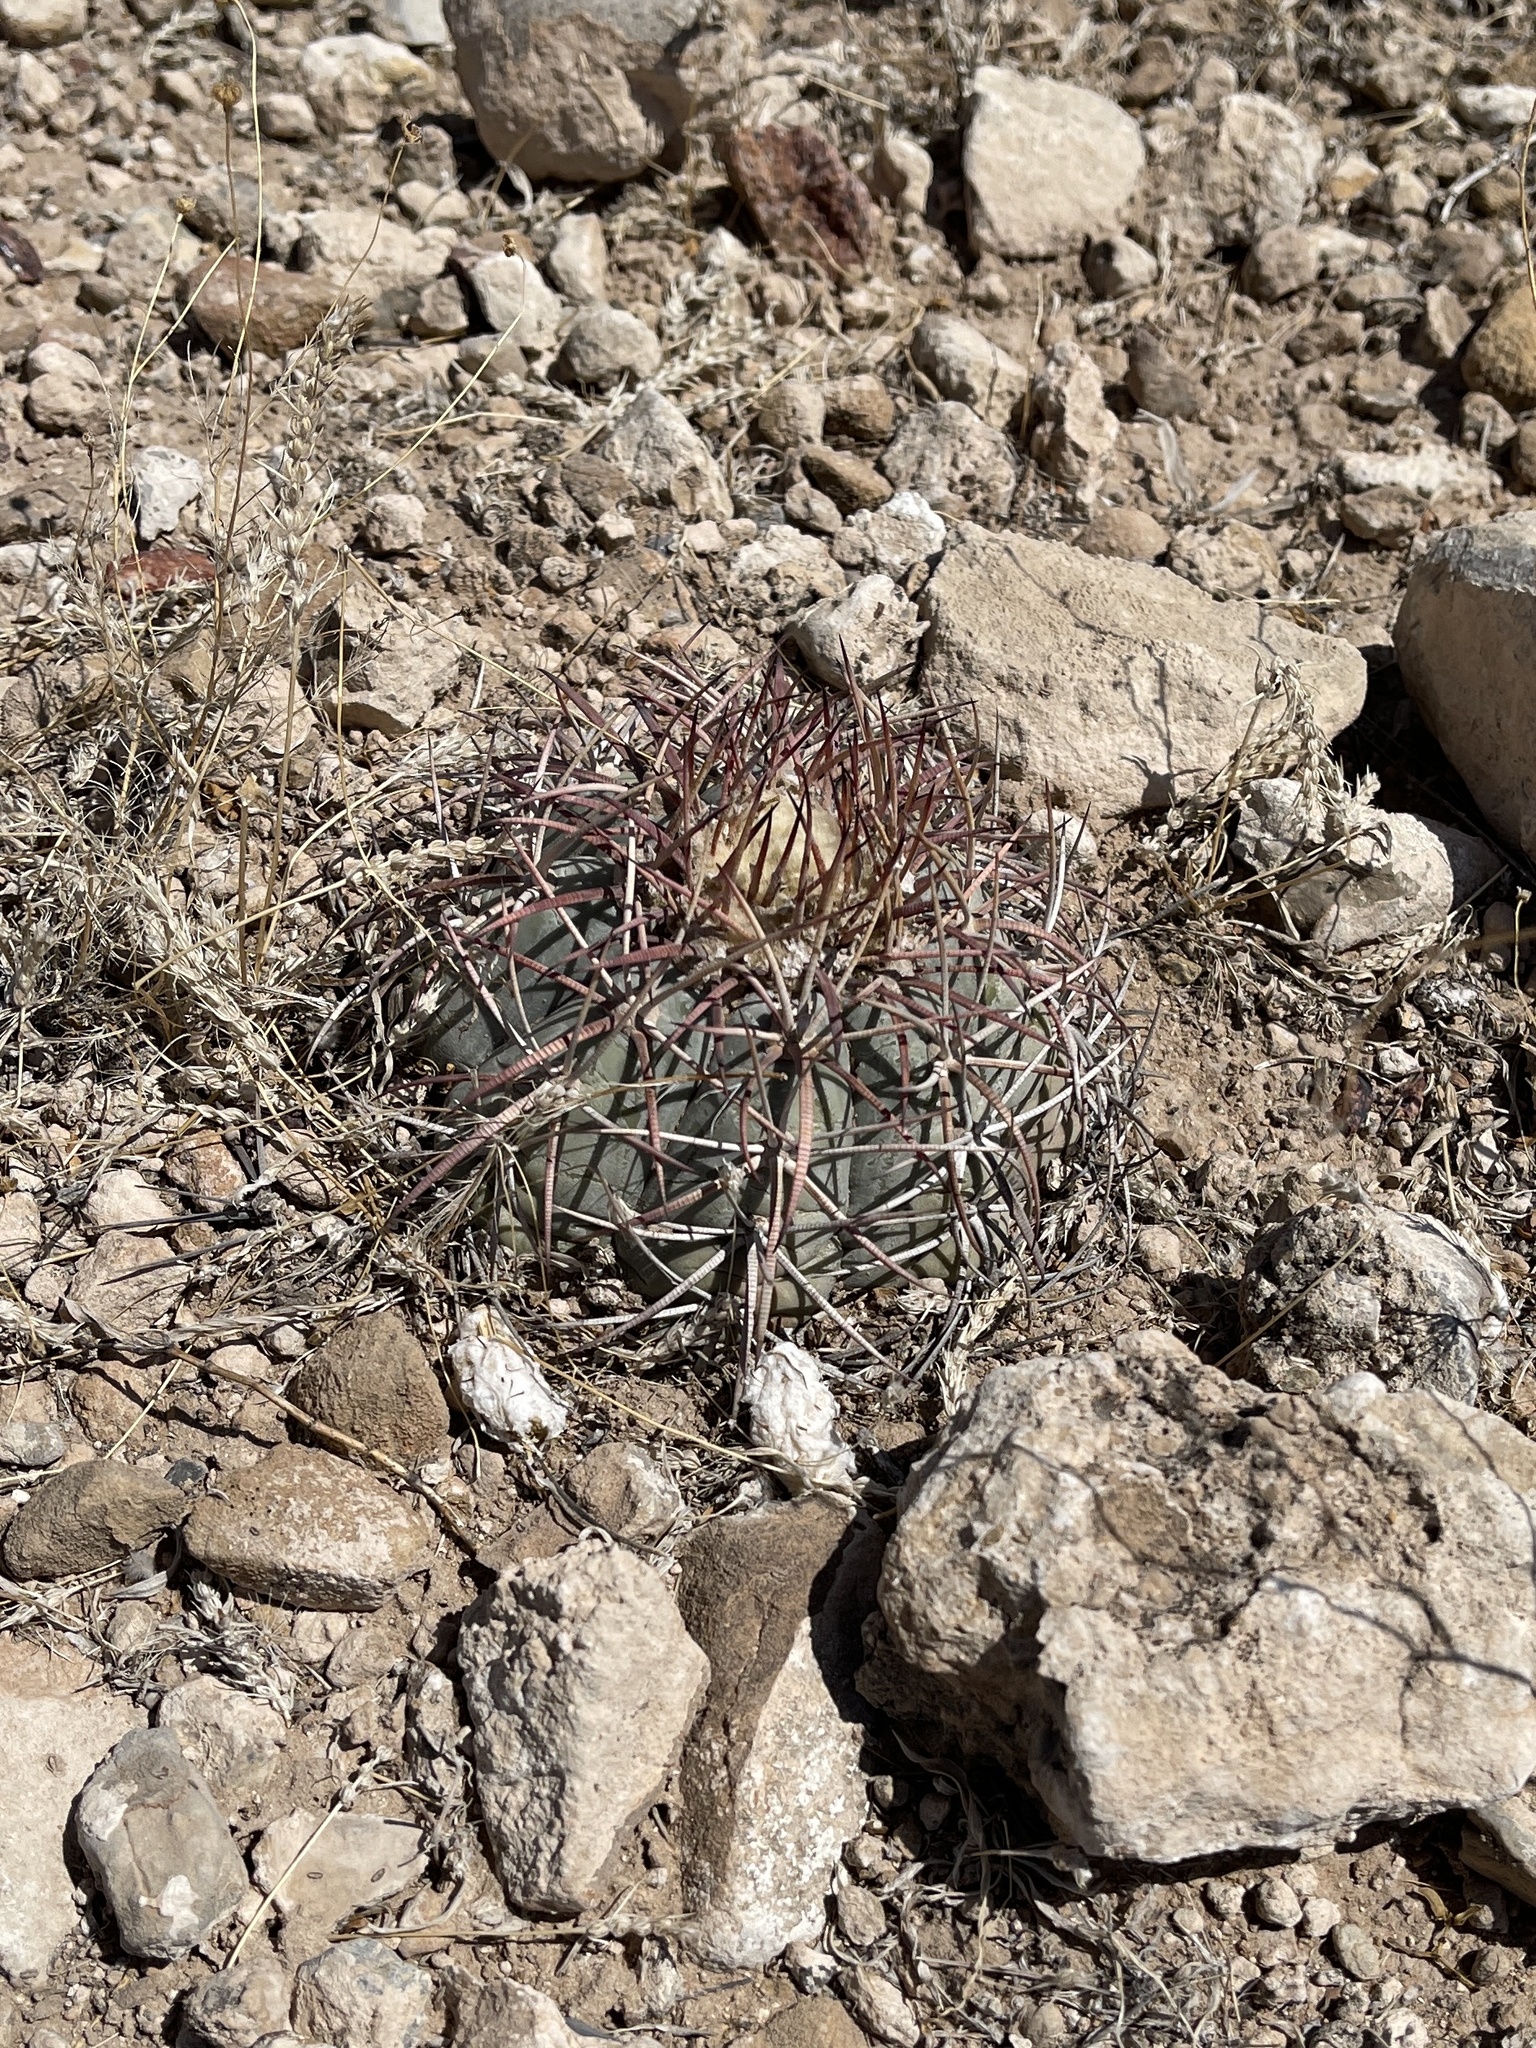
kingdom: Plantae
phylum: Tracheophyta
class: Magnoliopsida
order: Caryophyllales
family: Cactaceae
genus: Echinocactus
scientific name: Echinocactus horizonthalonius
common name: Devilshead
